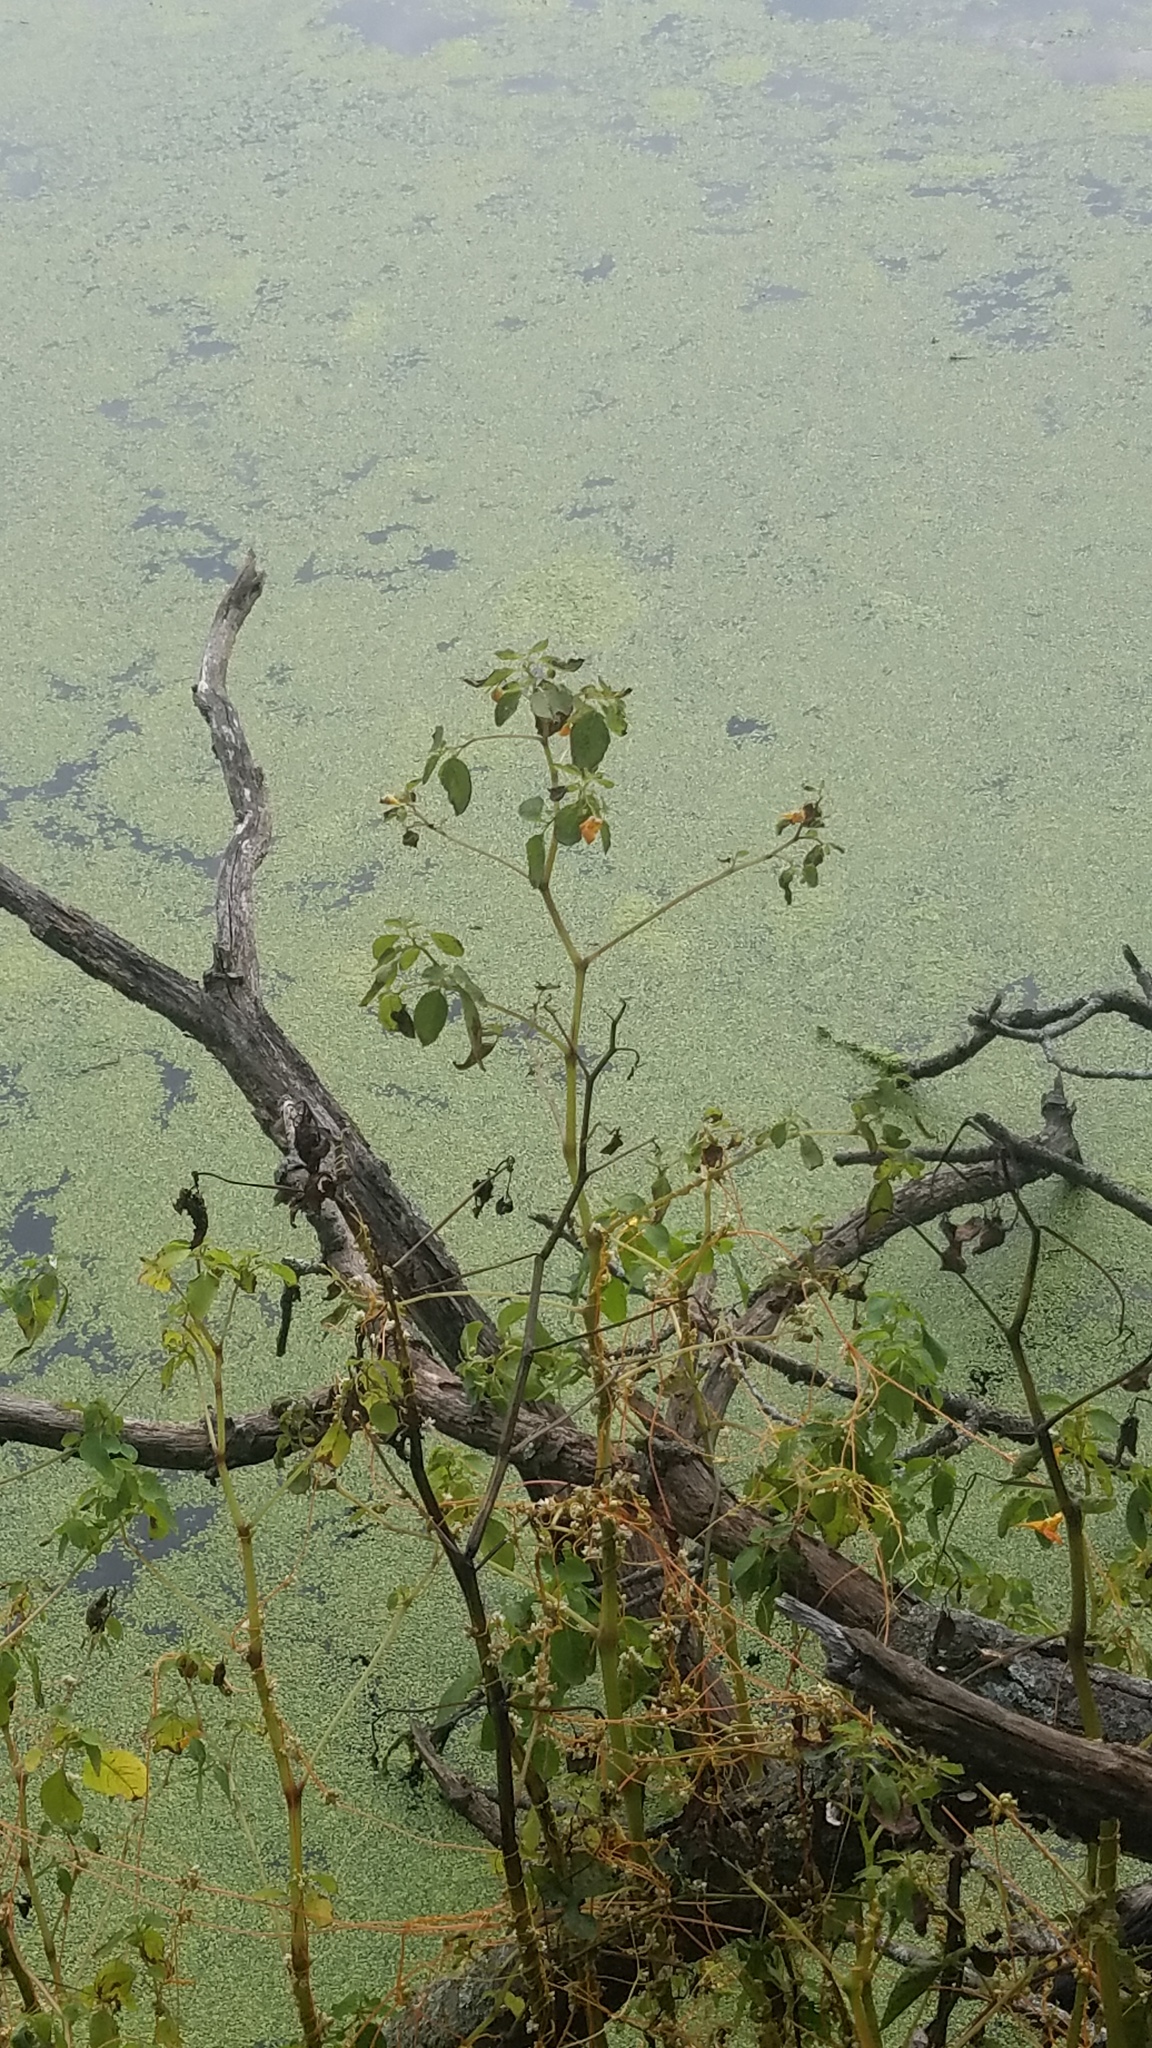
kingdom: Plantae
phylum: Tracheophyta
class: Magnoliopsida
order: Ericales
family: Balsaminaceae
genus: Impatiens
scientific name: Impatiens capensis
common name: Orange balsam
